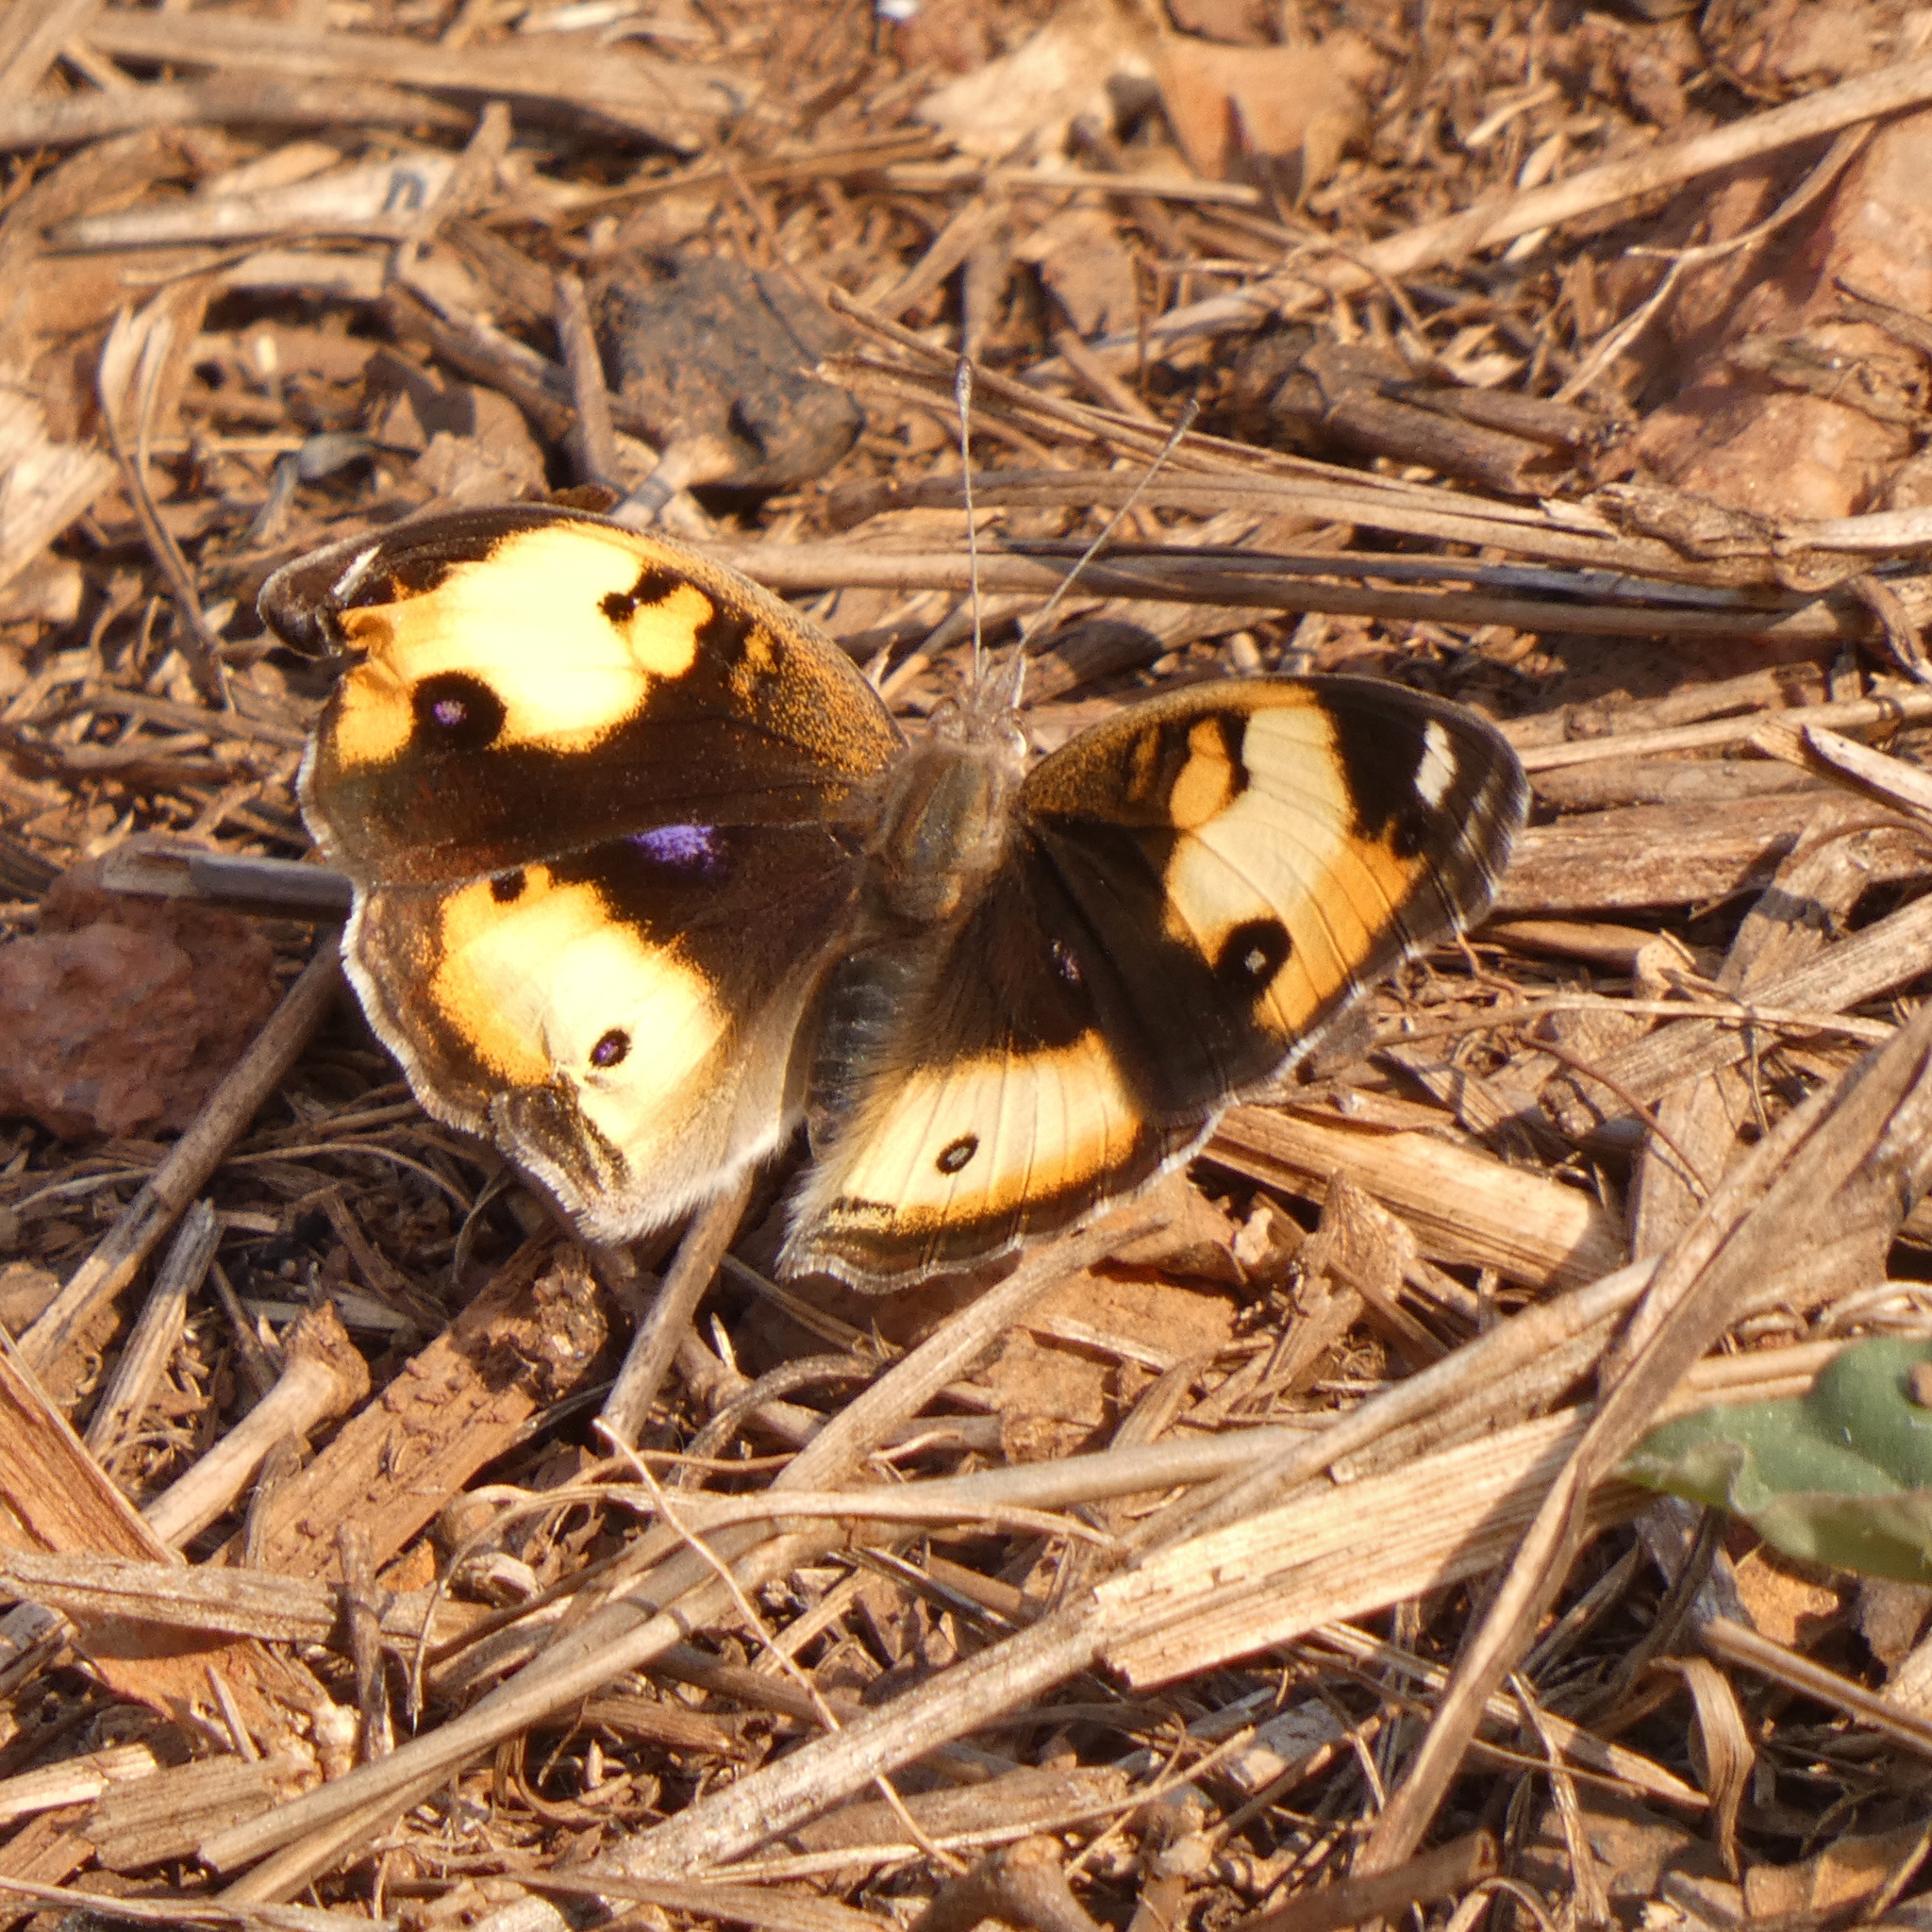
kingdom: Animalia
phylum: Arthropoda
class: Insecta
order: Lepidoptera
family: Nymphalidae
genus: Junonia
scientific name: Junonia hierta
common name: Yellow pansy
